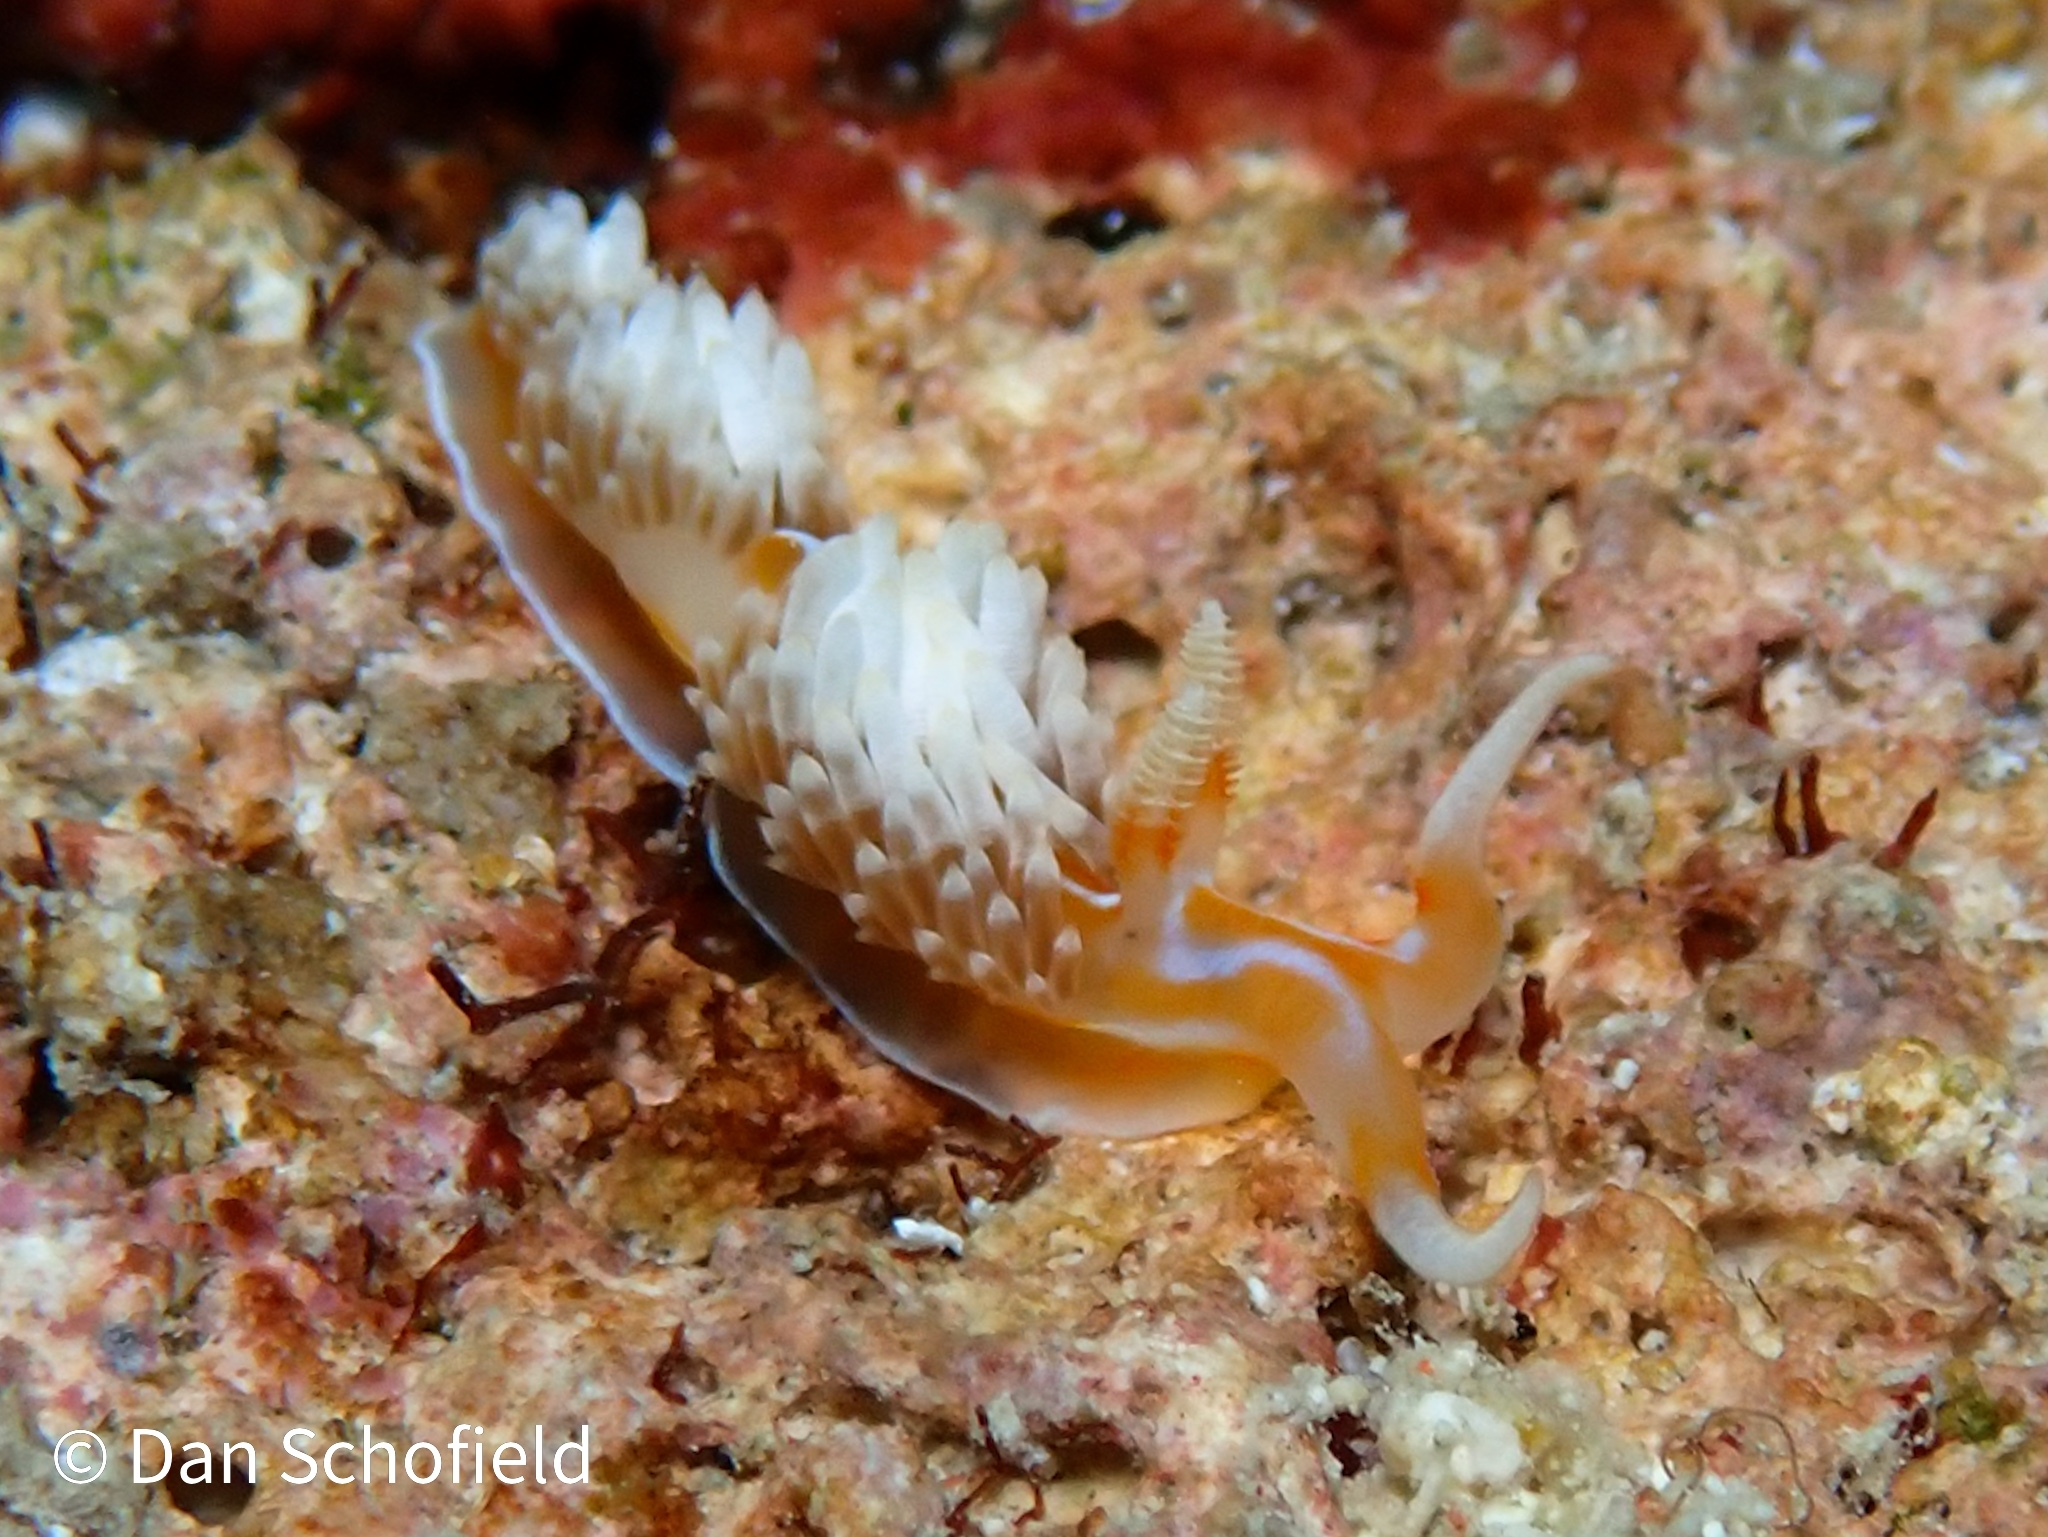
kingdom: Animalia
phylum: Mollusca
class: Gastropoda
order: Nudibranchia
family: Facelinidae
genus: Phidiana
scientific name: Phidiana lynceus
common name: Lynx nudibranch
